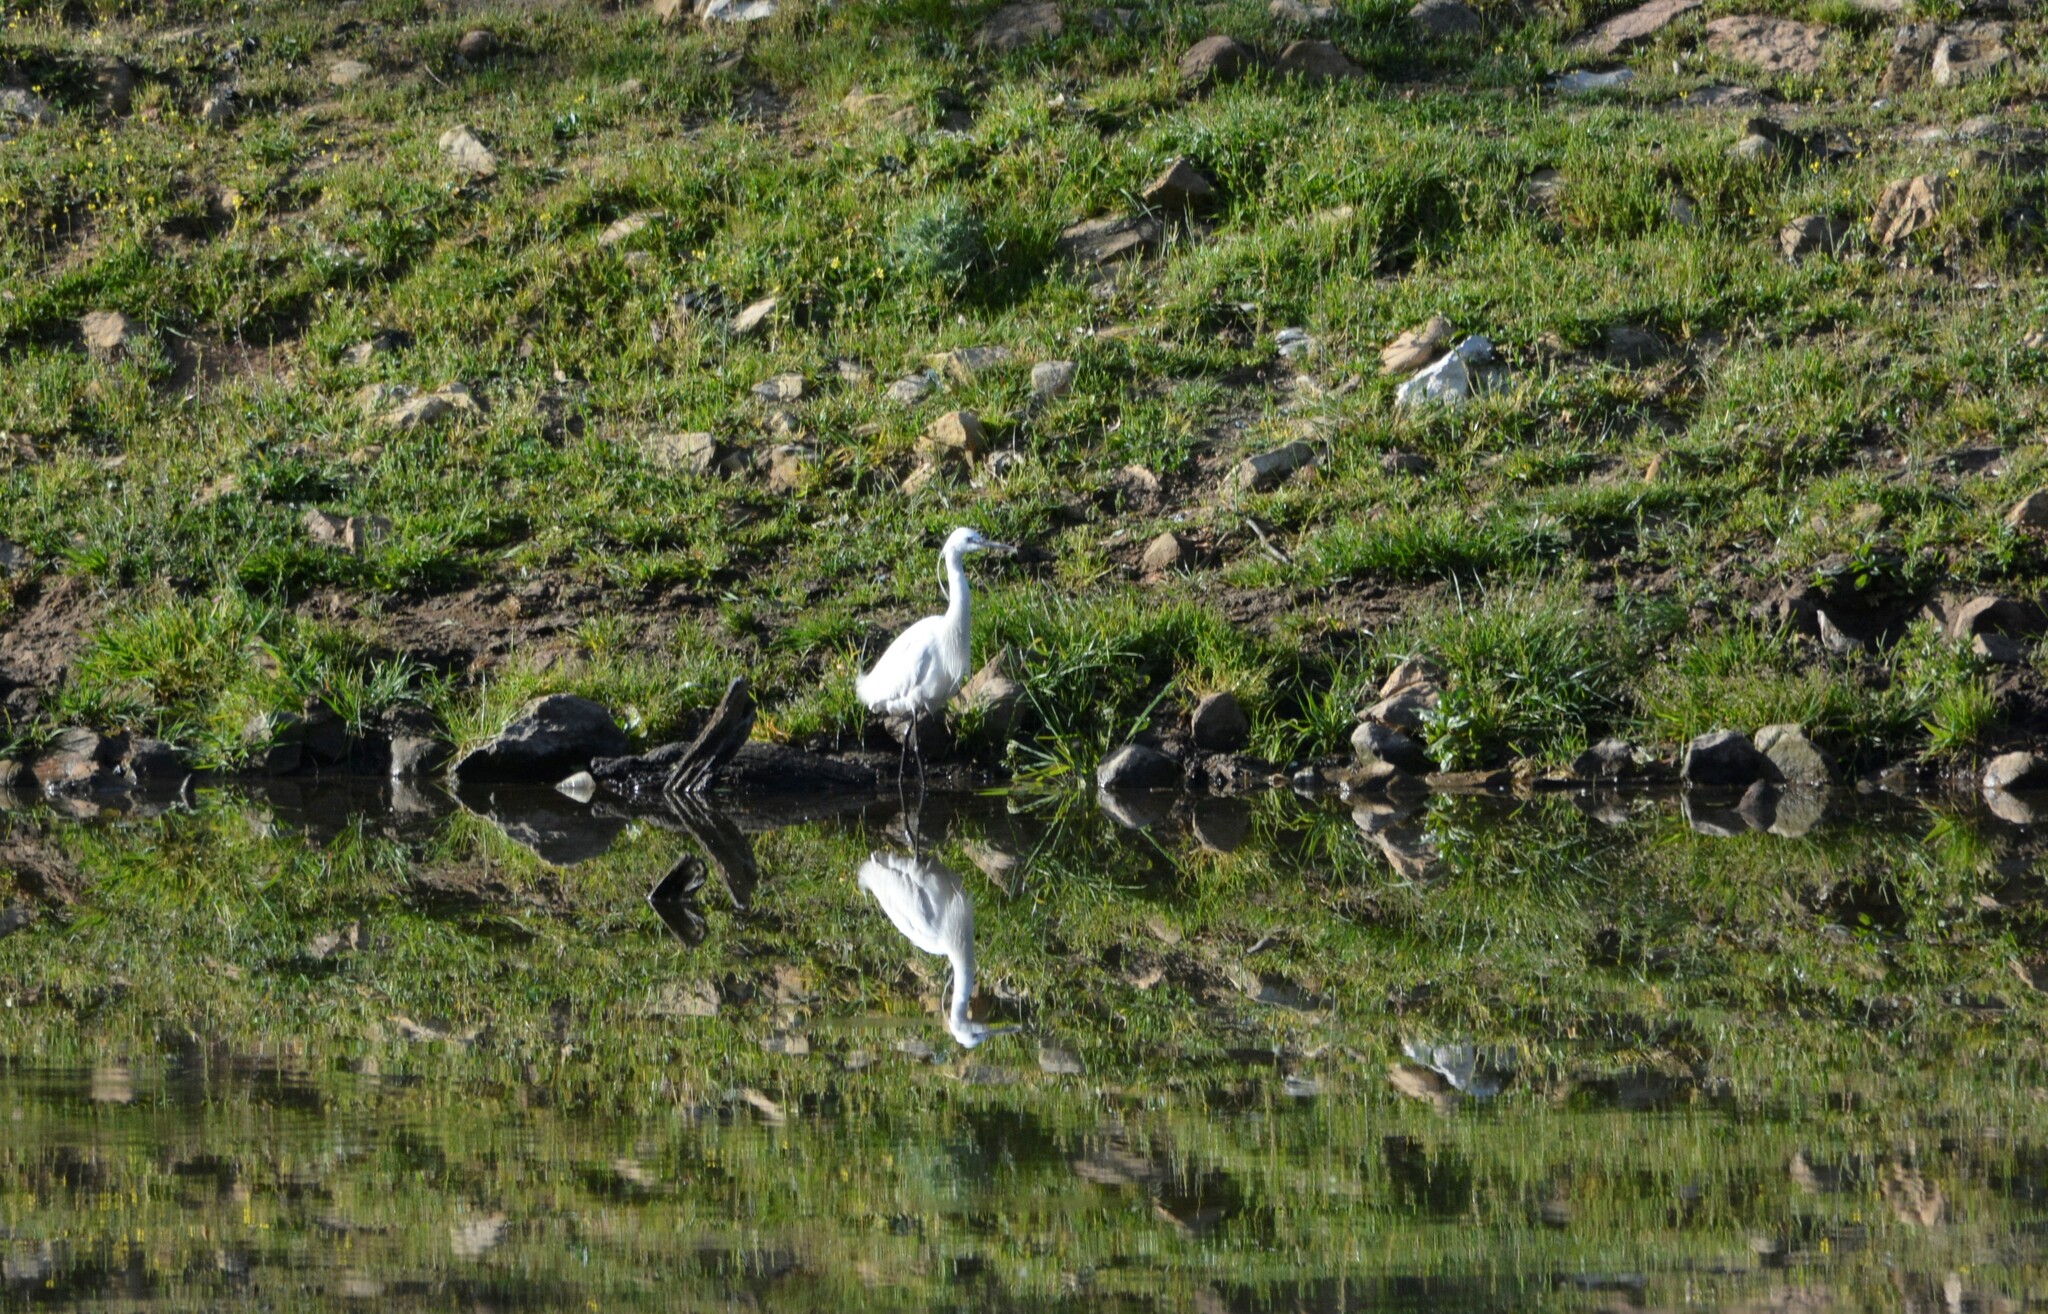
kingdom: Animalia
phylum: Chordata
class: Aves
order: Pelecaniformes
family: Ardeidae
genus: Egretta
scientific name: Egretta garzetta
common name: Little egret
